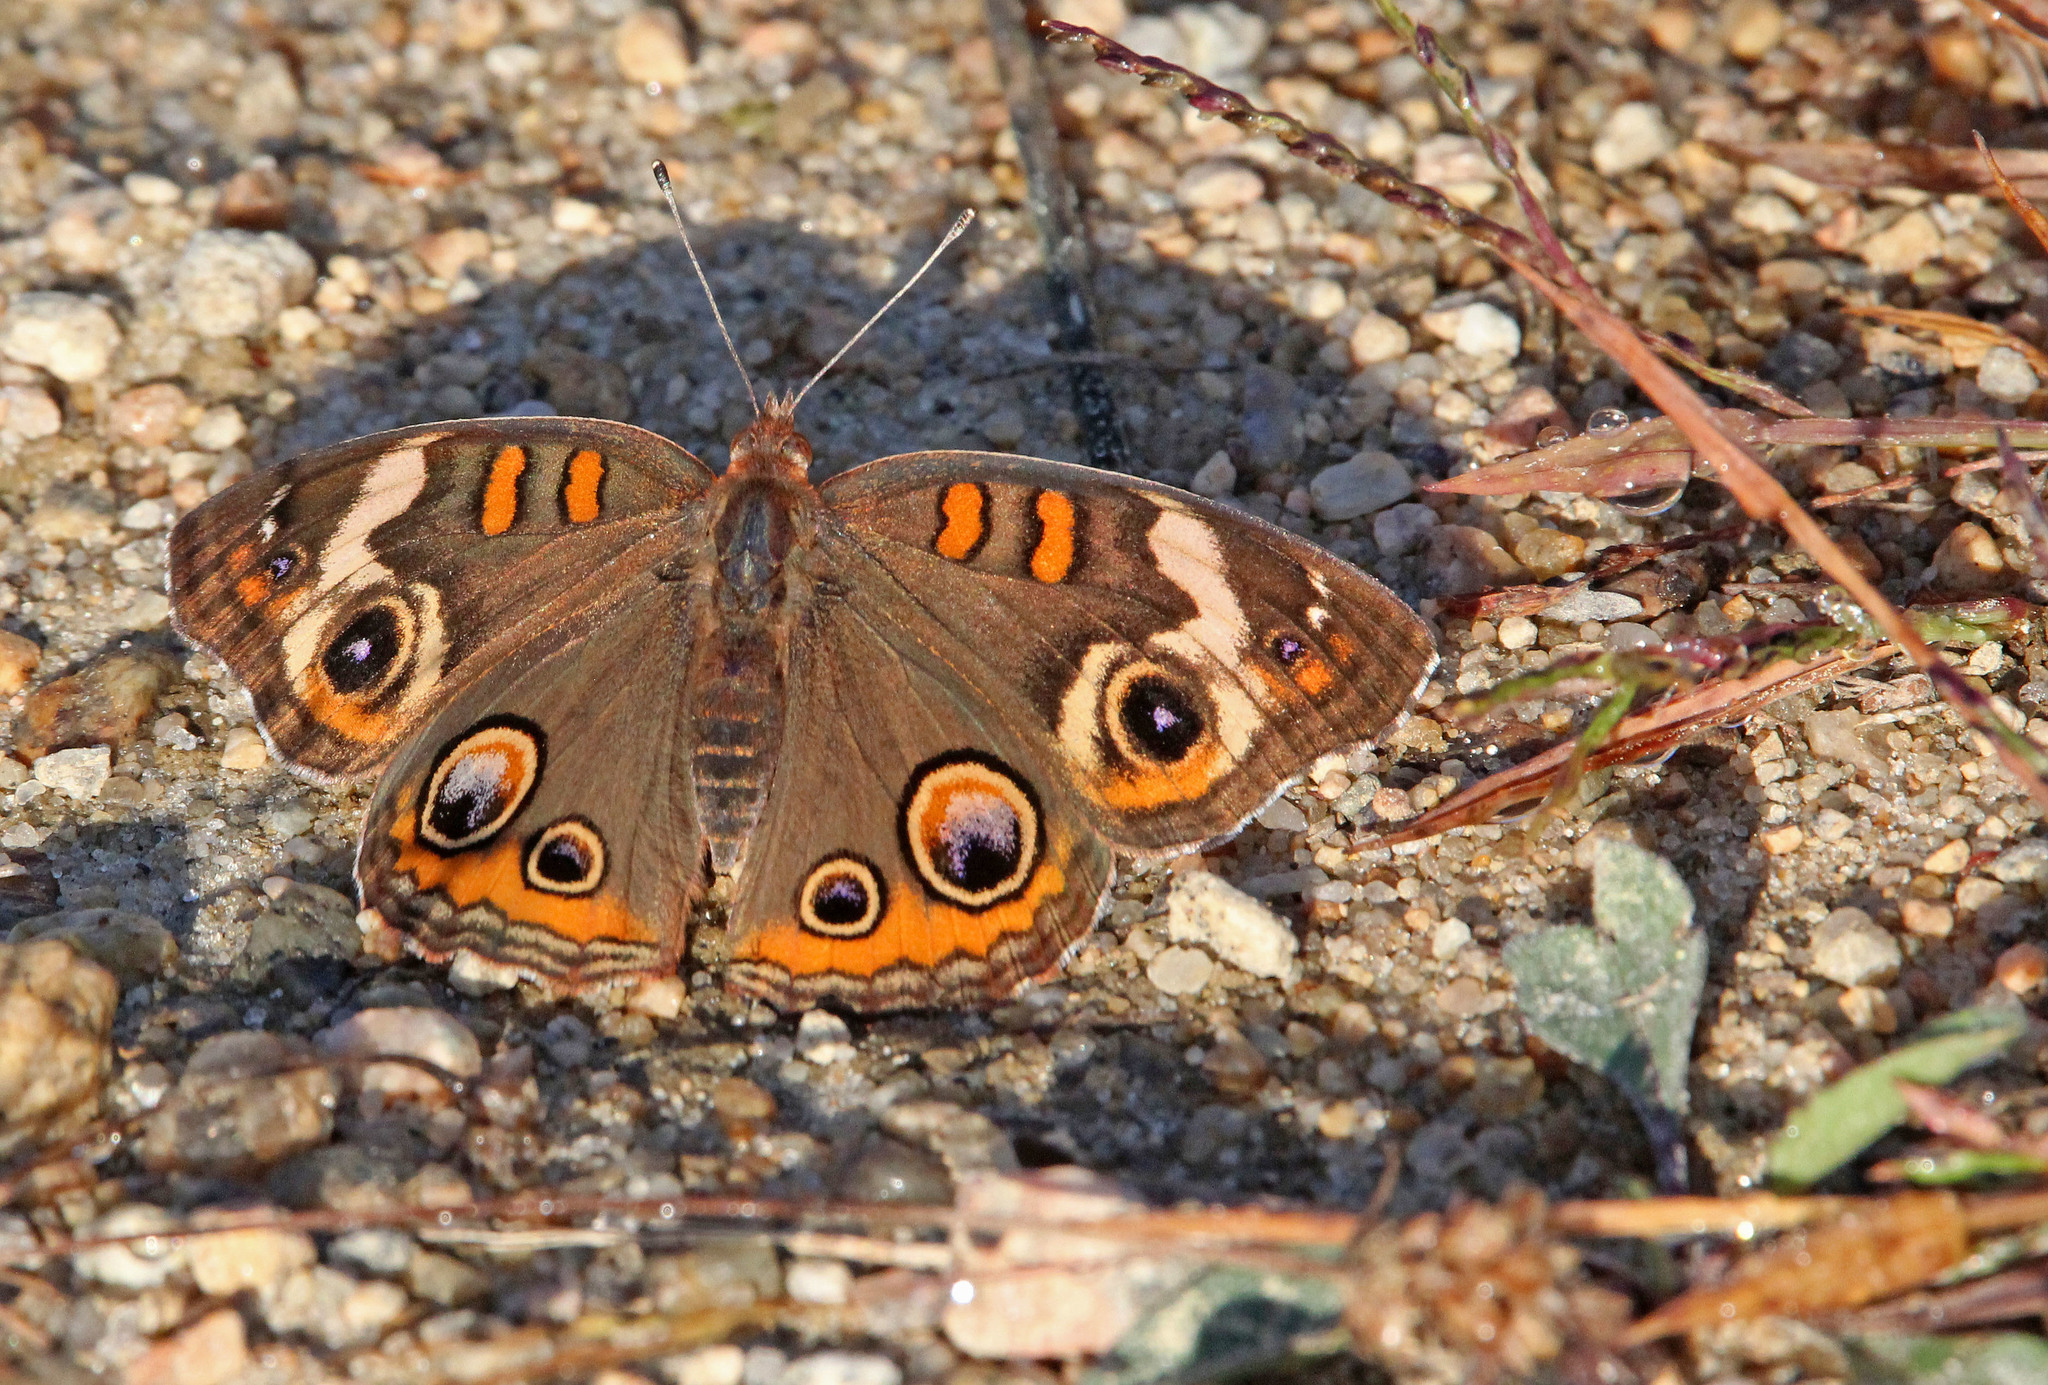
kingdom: Animalia
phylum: Arthropoda
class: Insecta
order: Lepidoptera
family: Nymphalidae
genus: Junonia
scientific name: Junonia coenia
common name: Common buckeye
